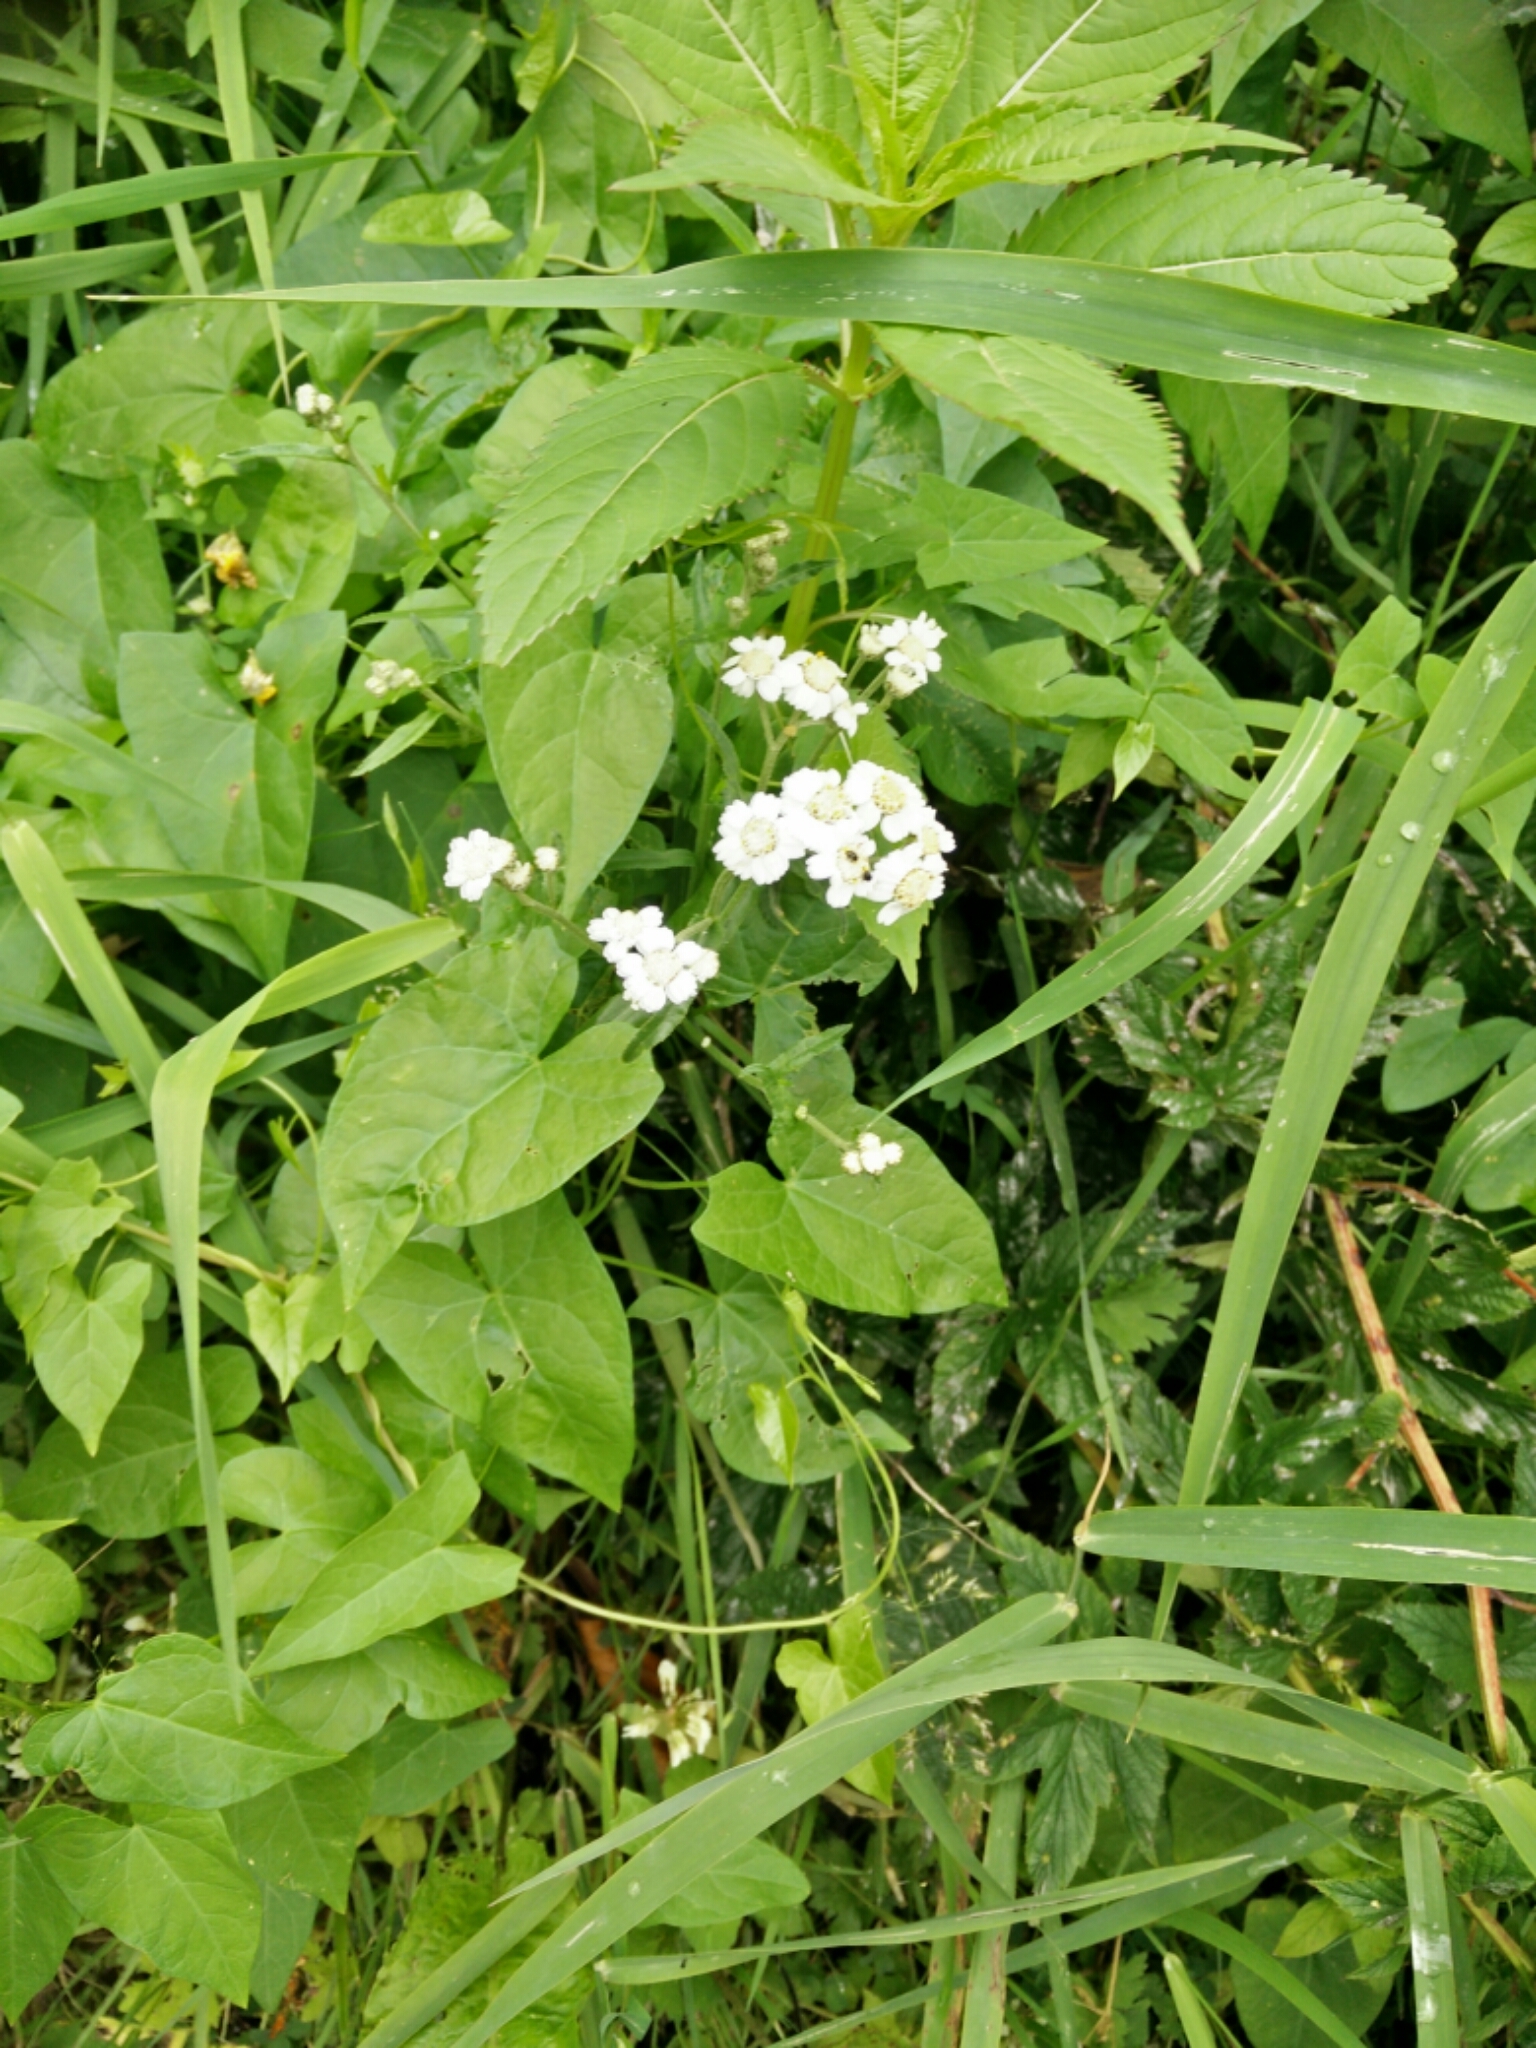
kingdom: Plantae
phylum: Tracheophyta
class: Magnoliopsida
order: Asterales
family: Asteraceae
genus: Achillea
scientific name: Achillea ptarmica
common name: Sneezeweed
